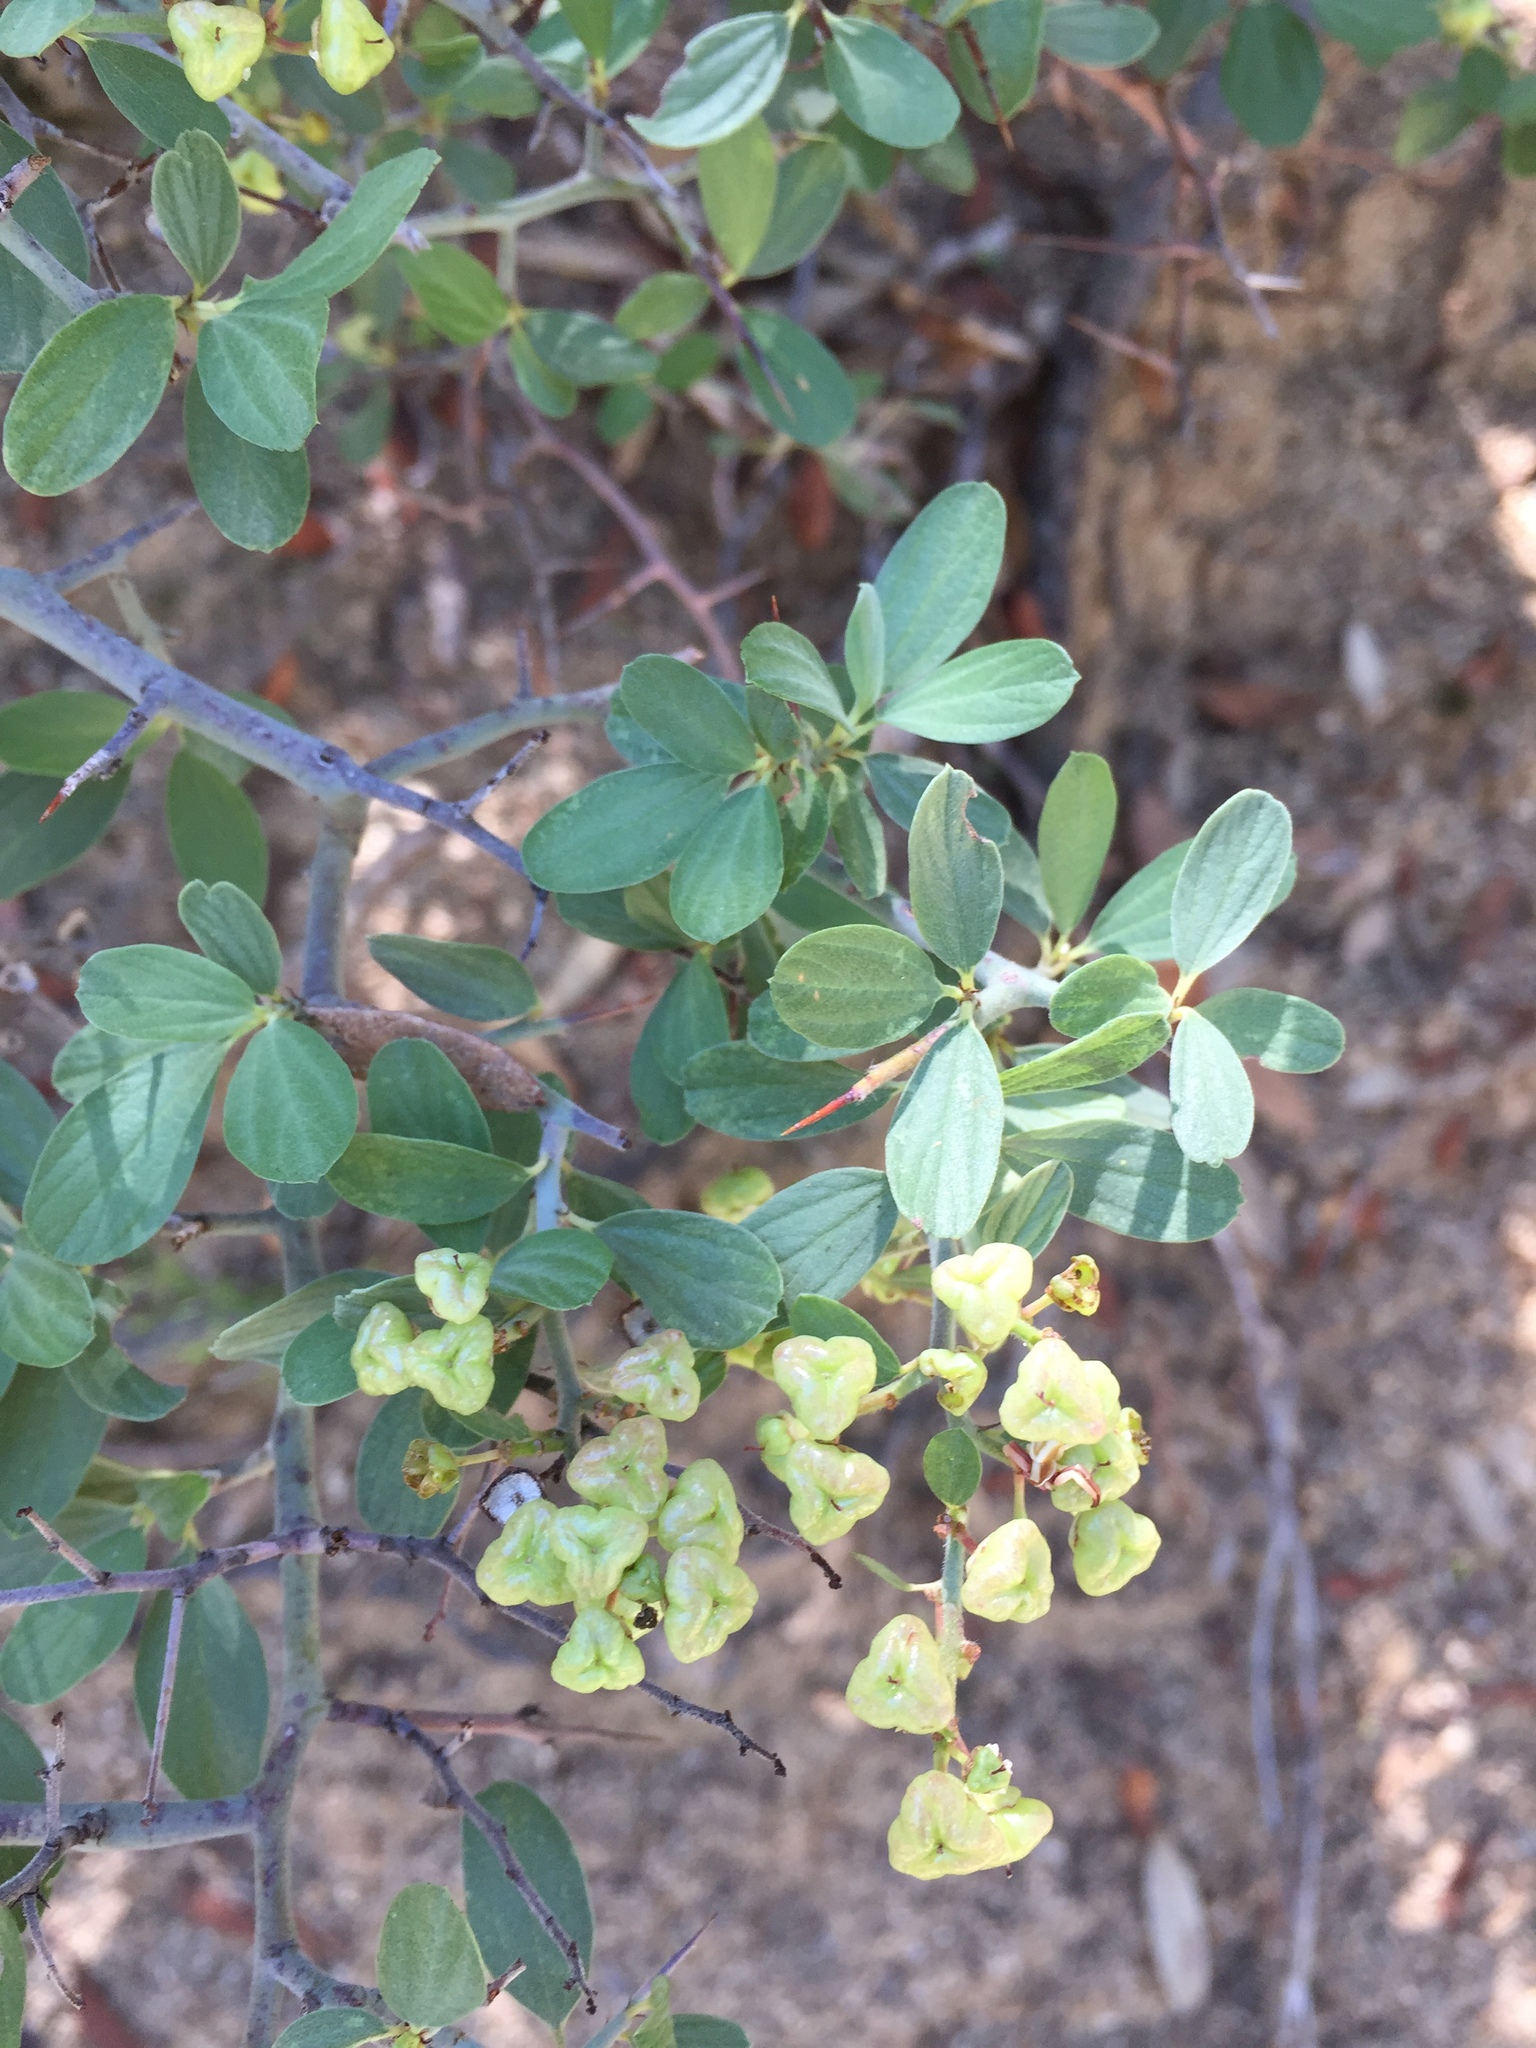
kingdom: Plantae
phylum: Tracheophyta
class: Magnoliopsida
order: Rosales
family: Rhamnaceae
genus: Ceanothus
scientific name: Ceanothus fendleri
